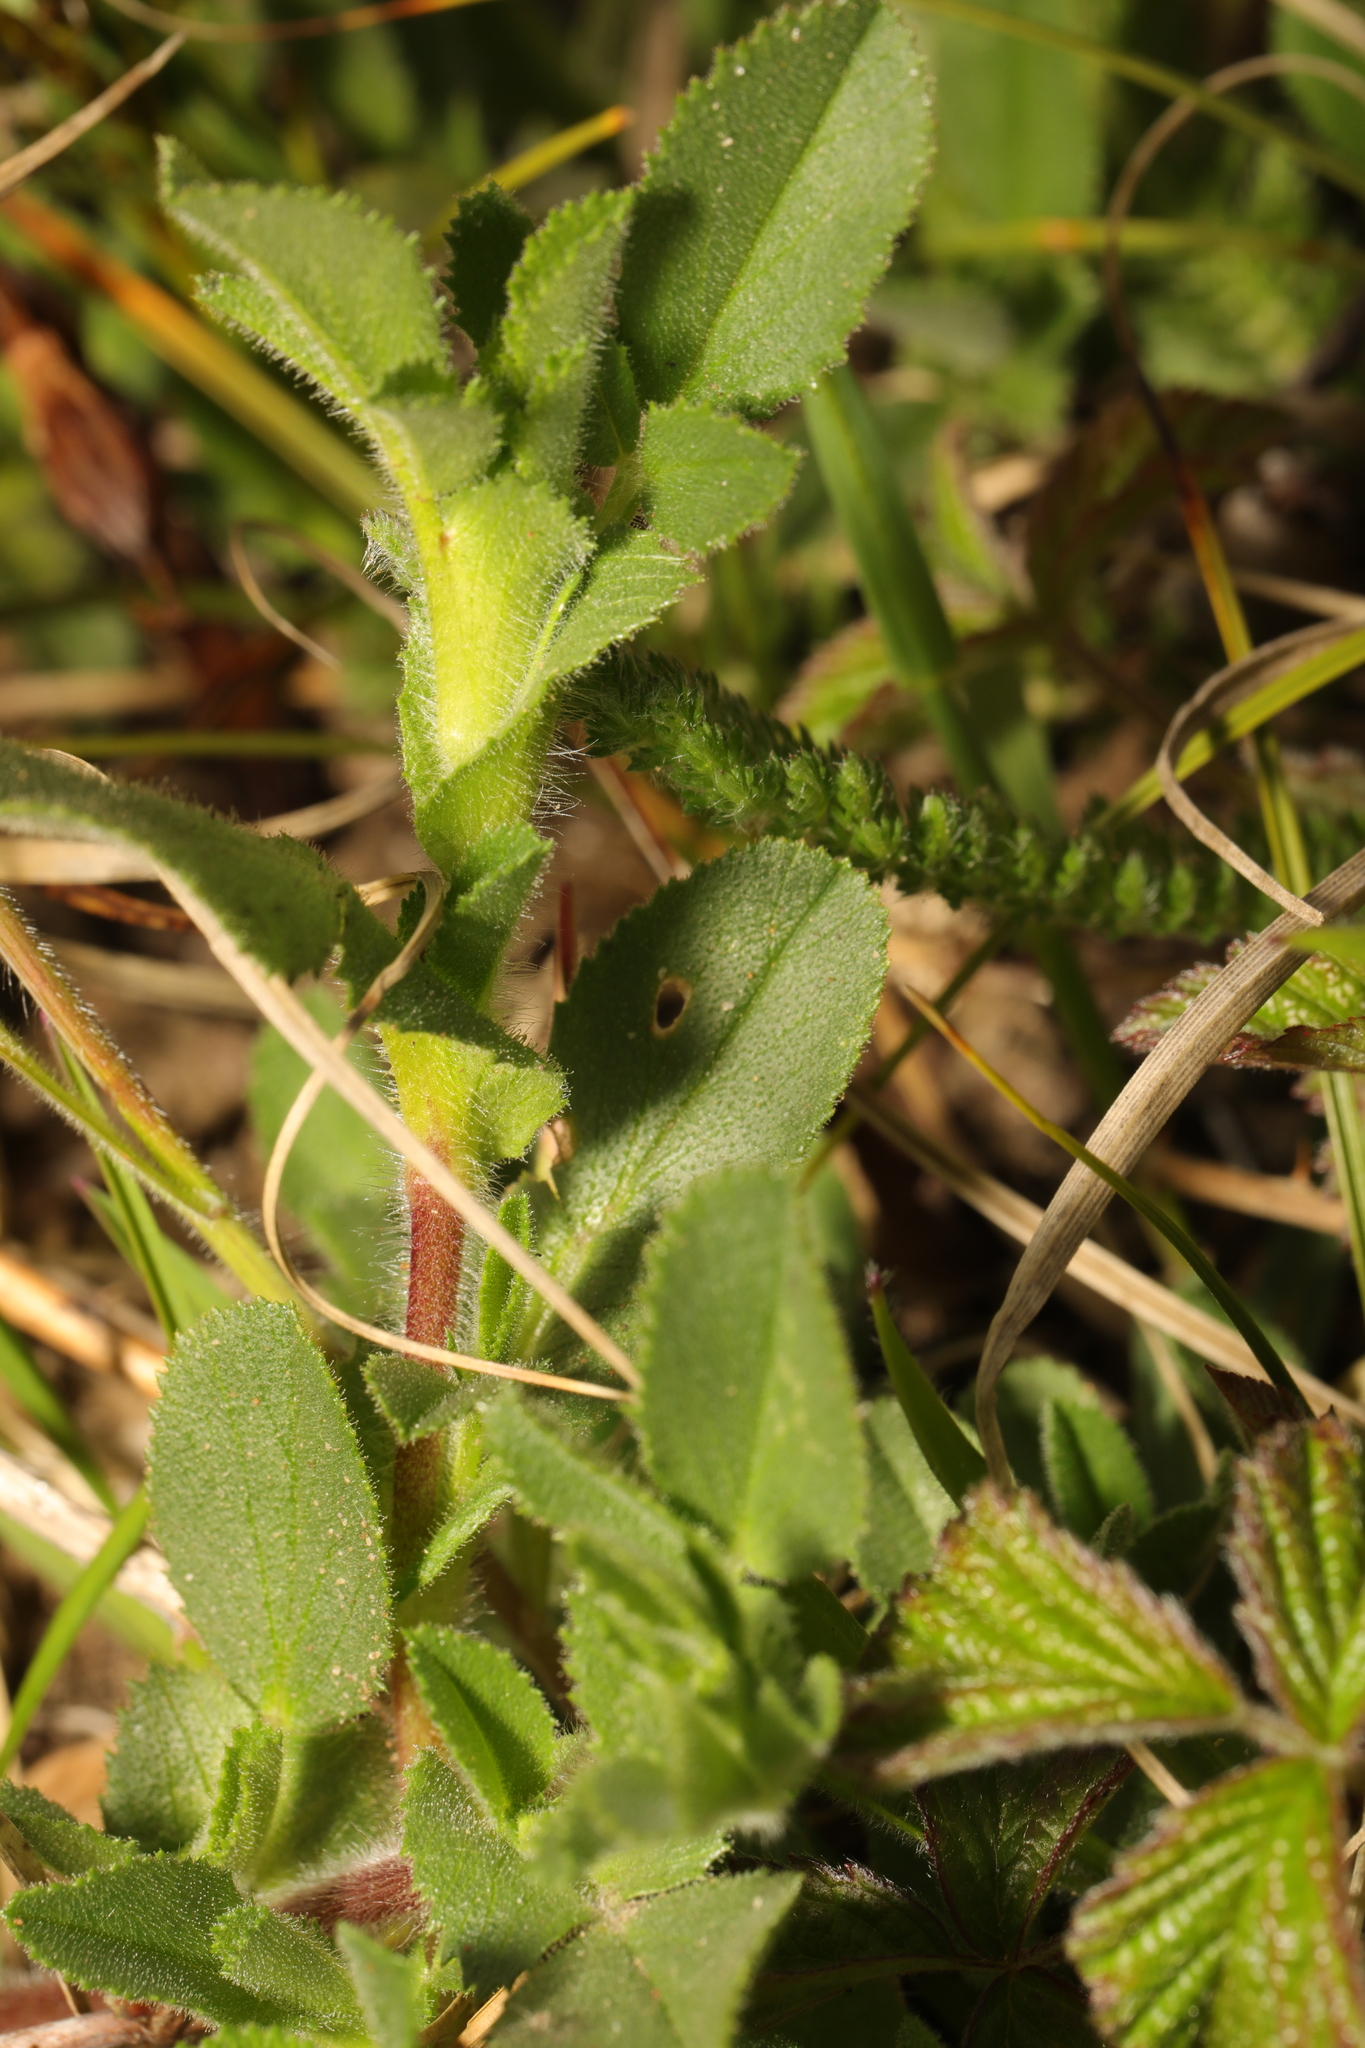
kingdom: Plantae
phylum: Tracheophyta
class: Magnoliopsida
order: Fabales
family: Fabaceae
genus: Ononis
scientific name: Ononis spinosa
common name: Spiny restharrow
